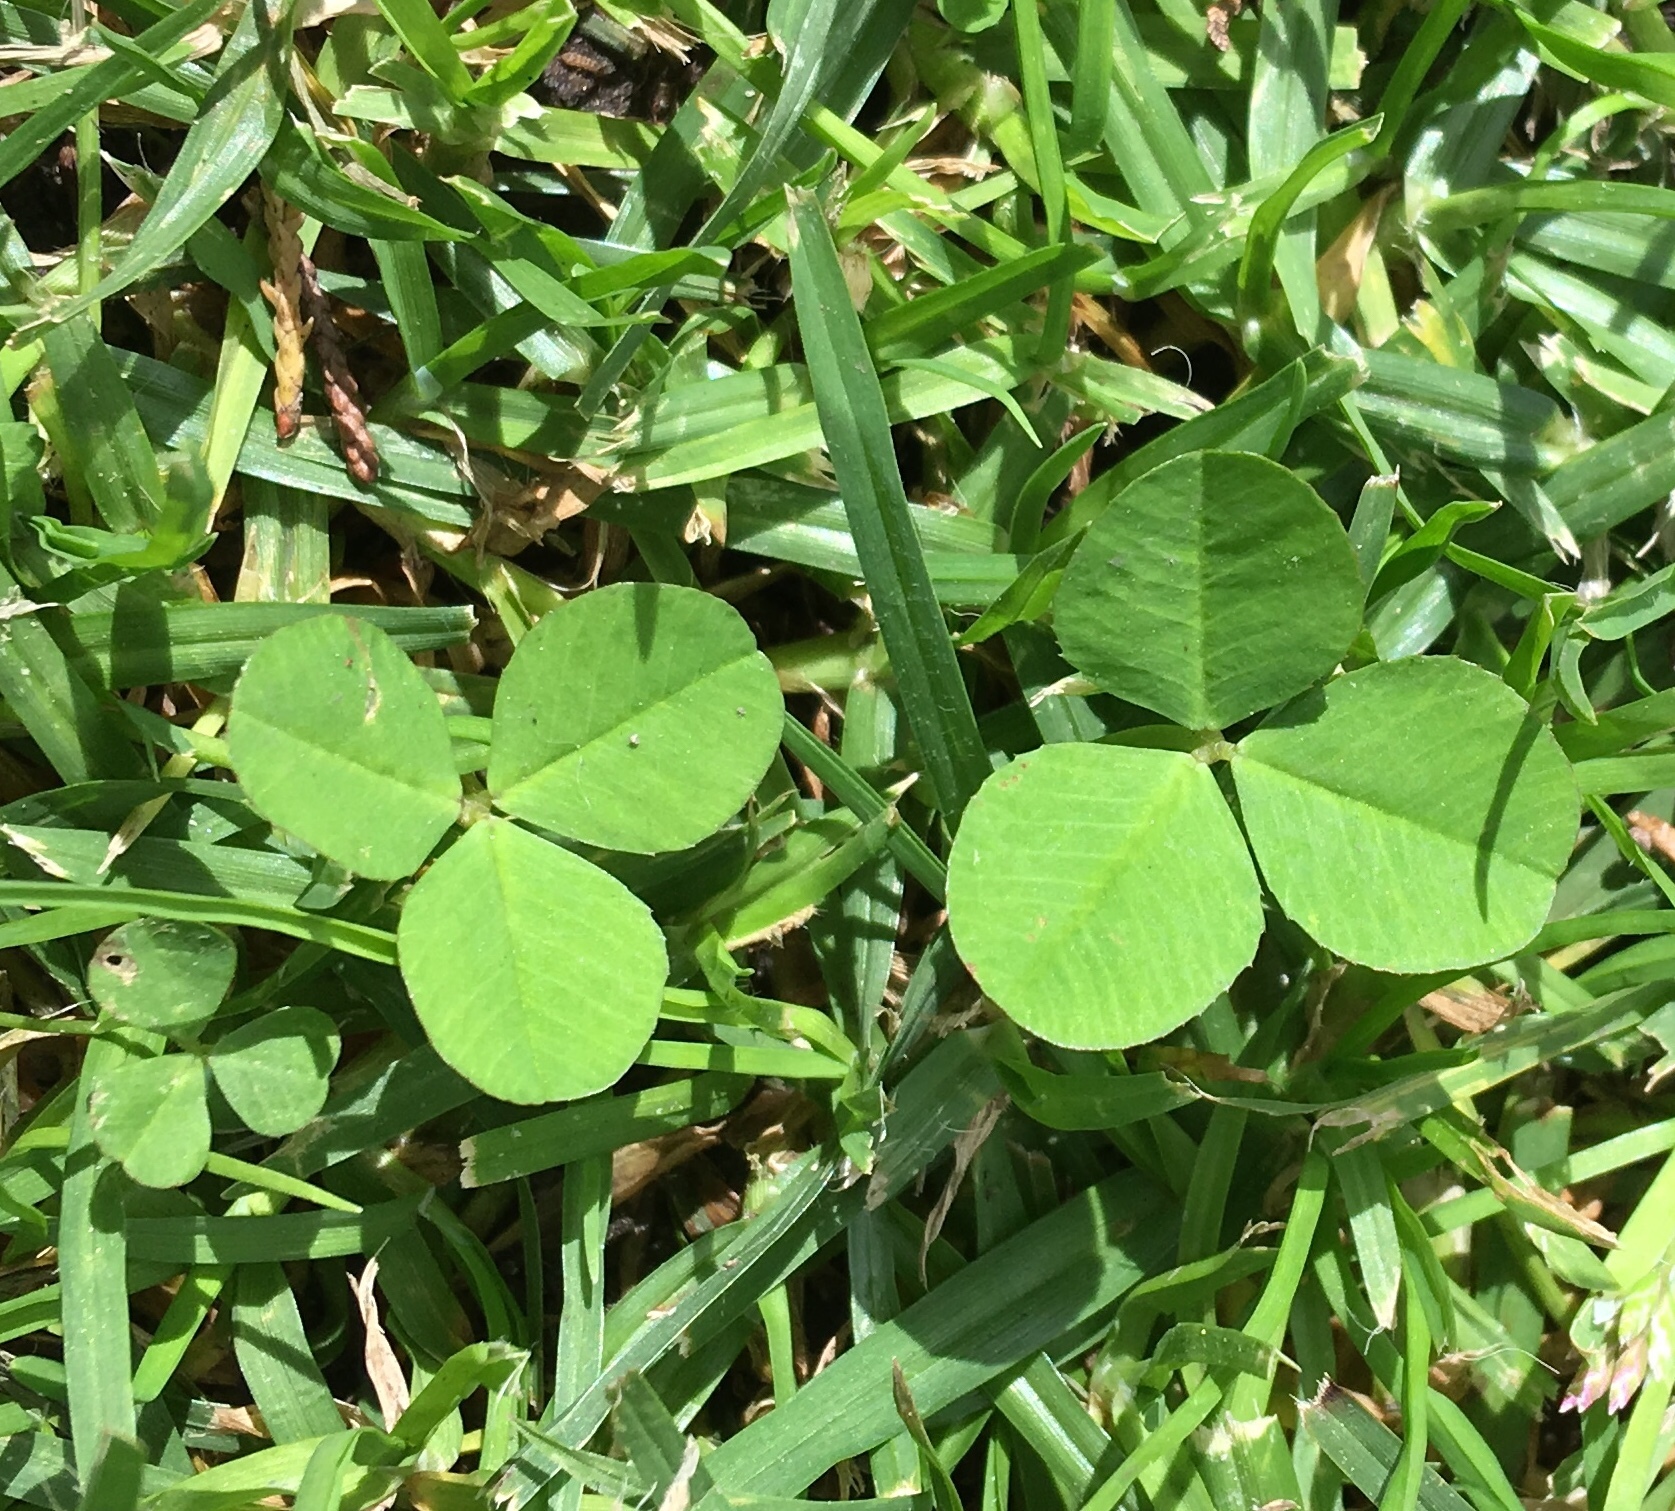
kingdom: Plantae
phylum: Tracheophyta
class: Magnoliopsida
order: Fabales
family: Fabaceae
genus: Trifolium
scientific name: Trifolium repens
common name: White clover
